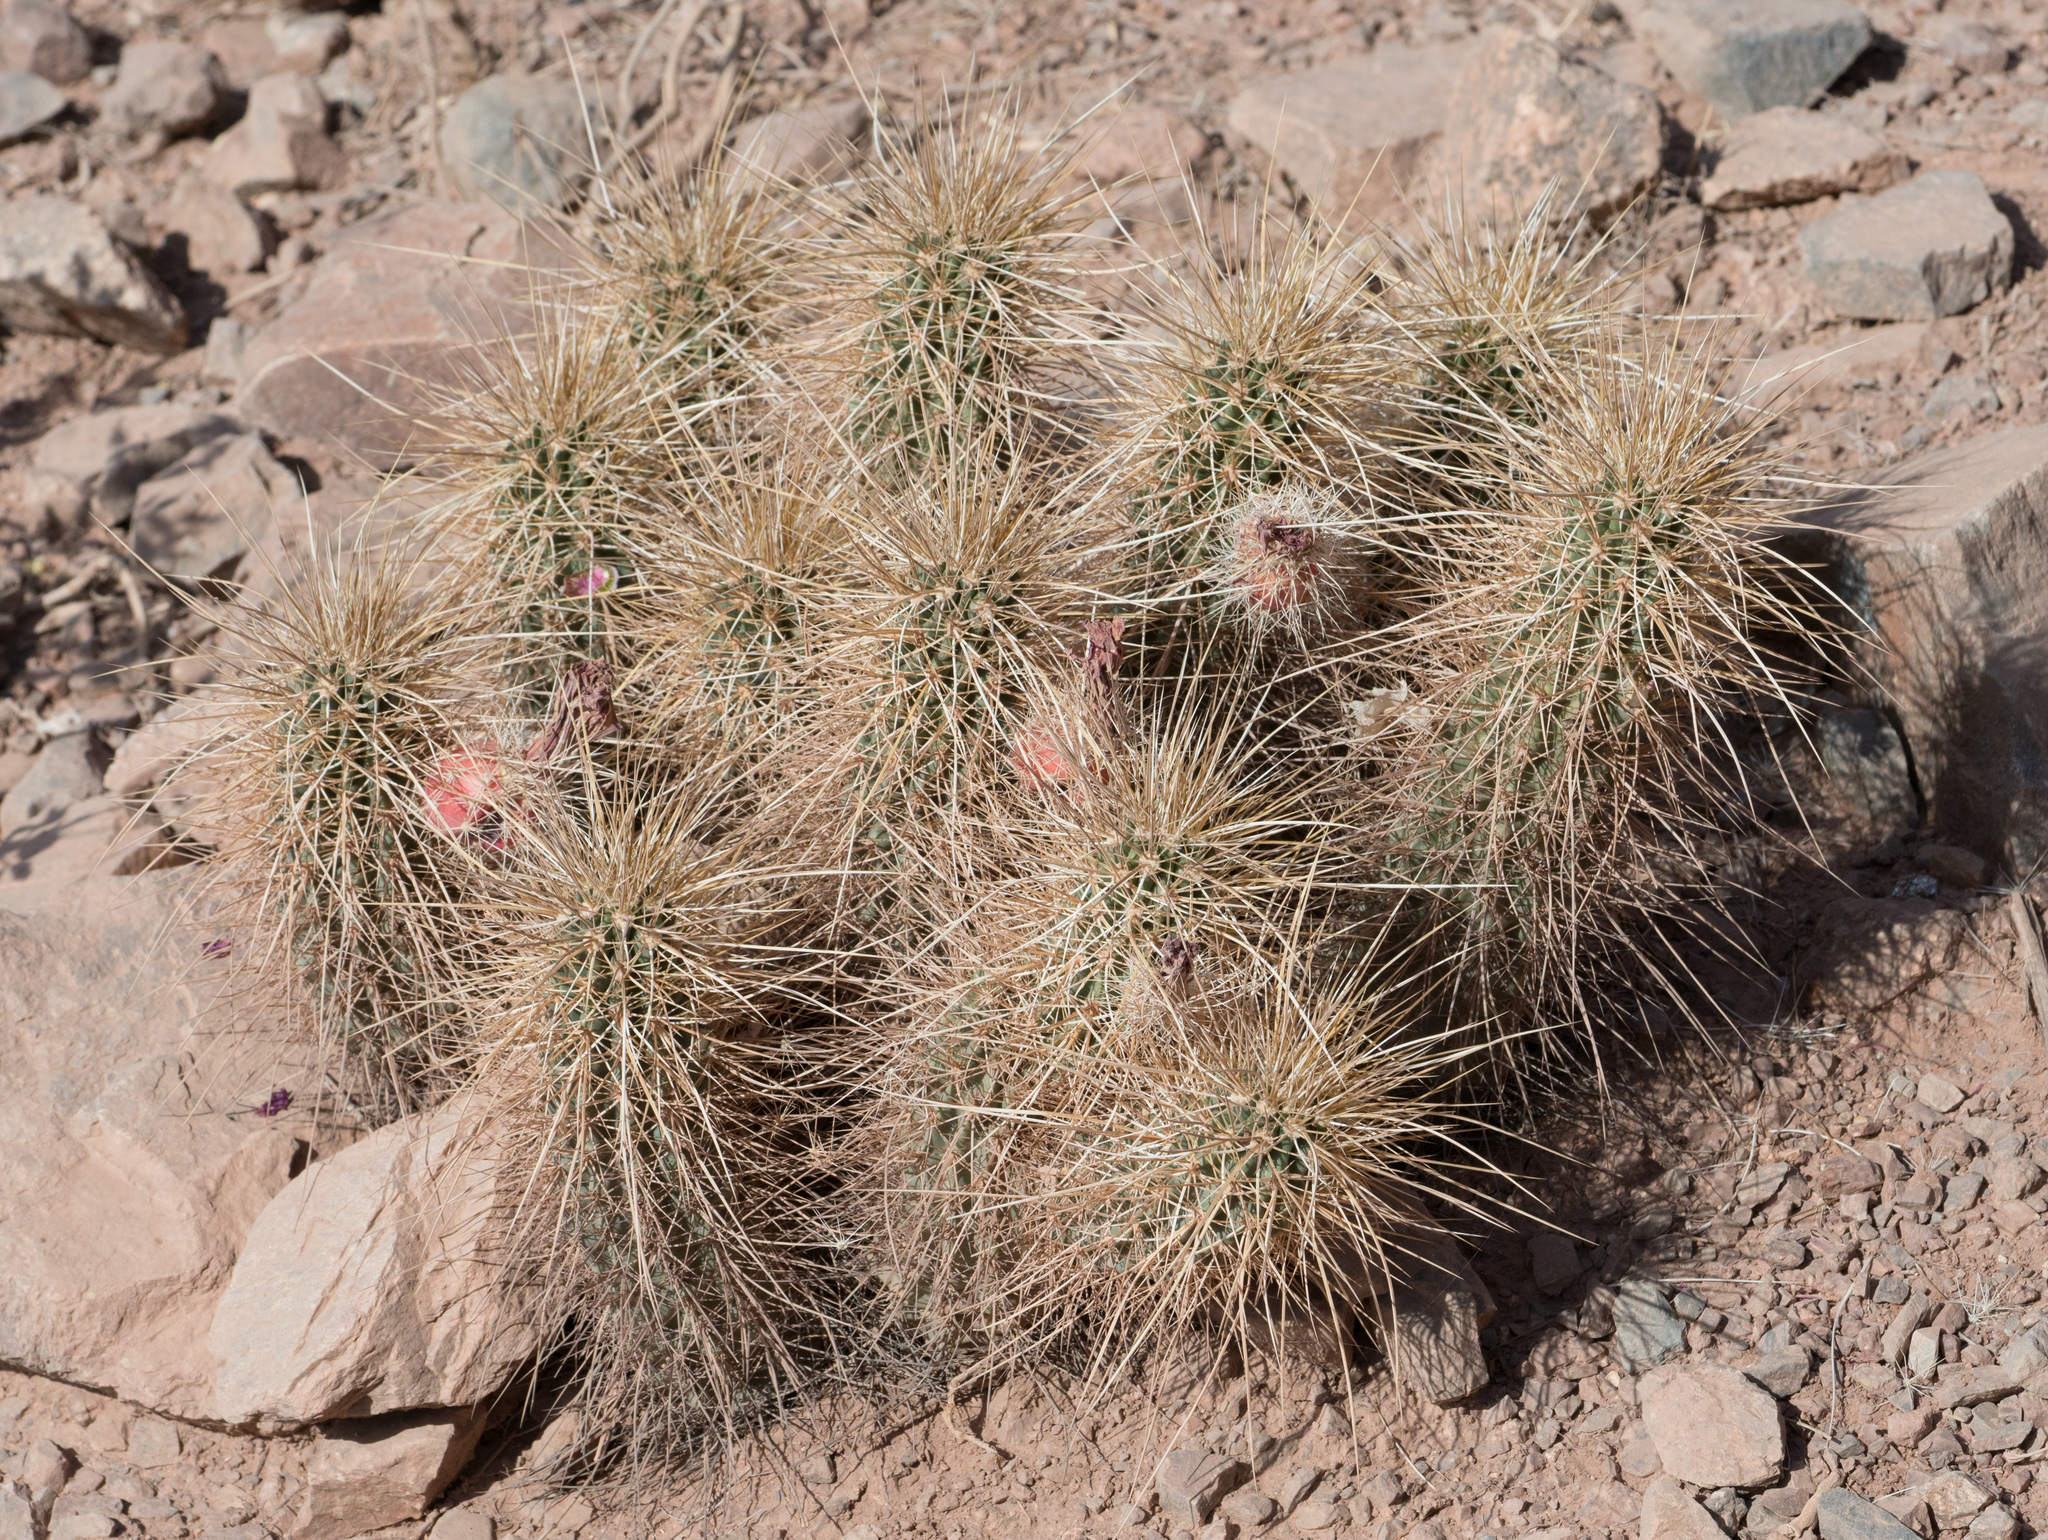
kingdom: Plantae
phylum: Tracheophyta
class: Magnoliopsida
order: Caryophyllales
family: Cactaceae
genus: Echinocereus
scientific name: Echinocereus engelmannii
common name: Engelmann's hedgehog cactus
